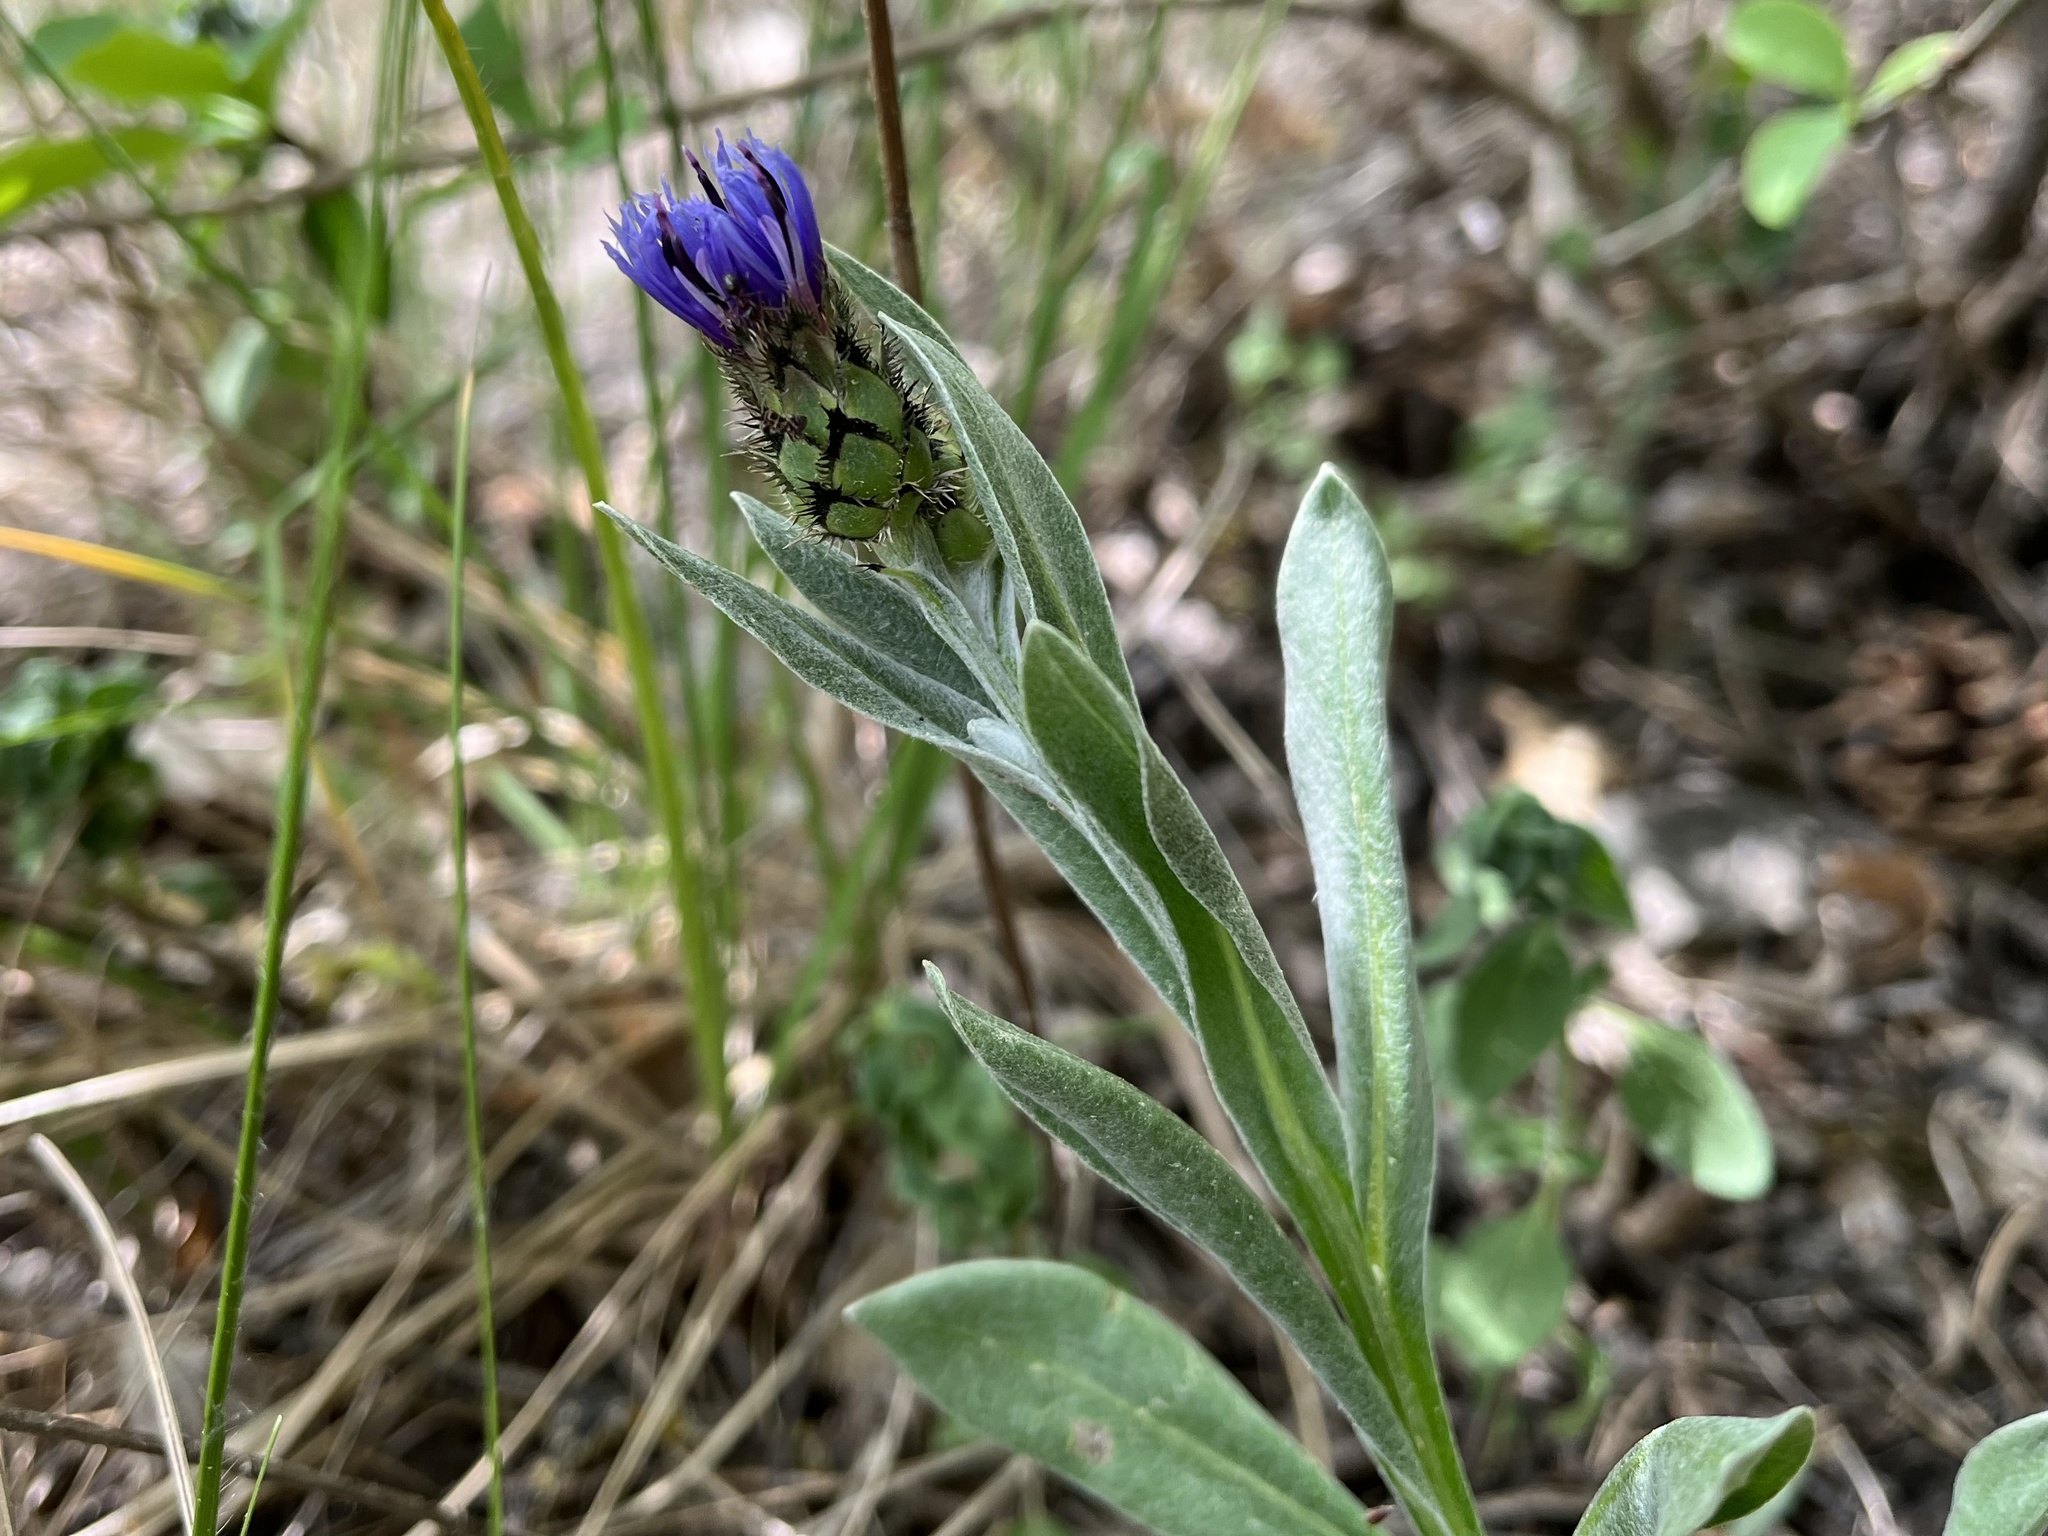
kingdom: Plantae
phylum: Tracheophyta
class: Magnoliopsida
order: Asterales
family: Asteraceae
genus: Centaurea
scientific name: Centaurea triumfettii
